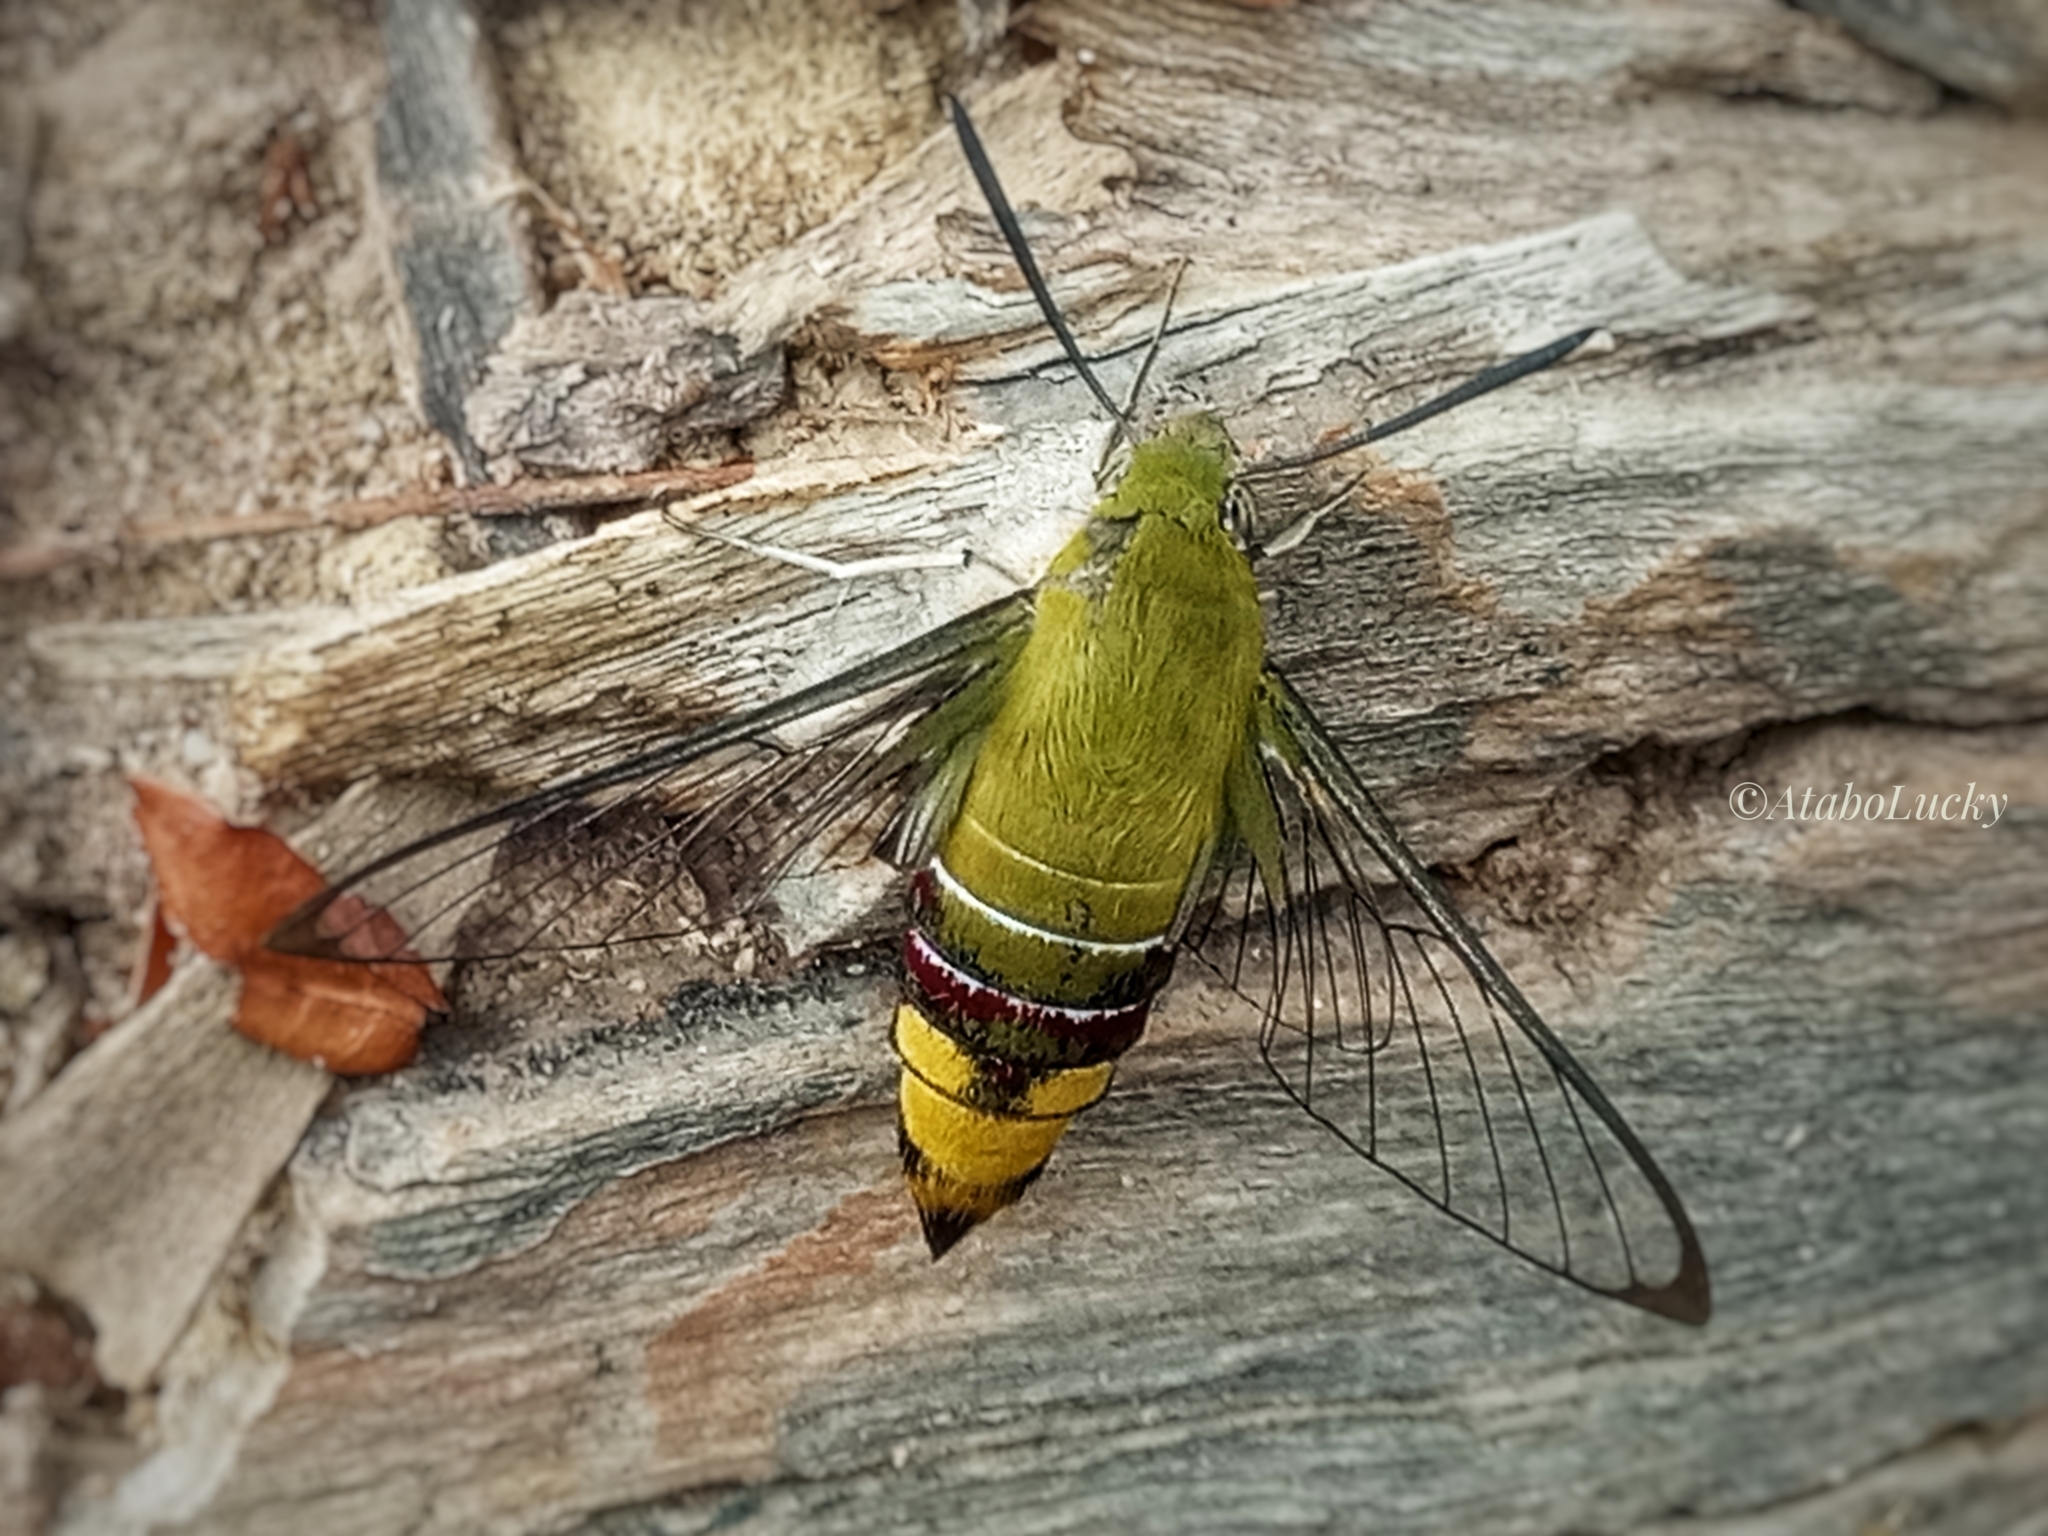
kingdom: Animalia
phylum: Arthropoda
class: Insecta
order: Lepidoptera
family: Sphingidae
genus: Cephonodes
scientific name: Cephonodes hylas
